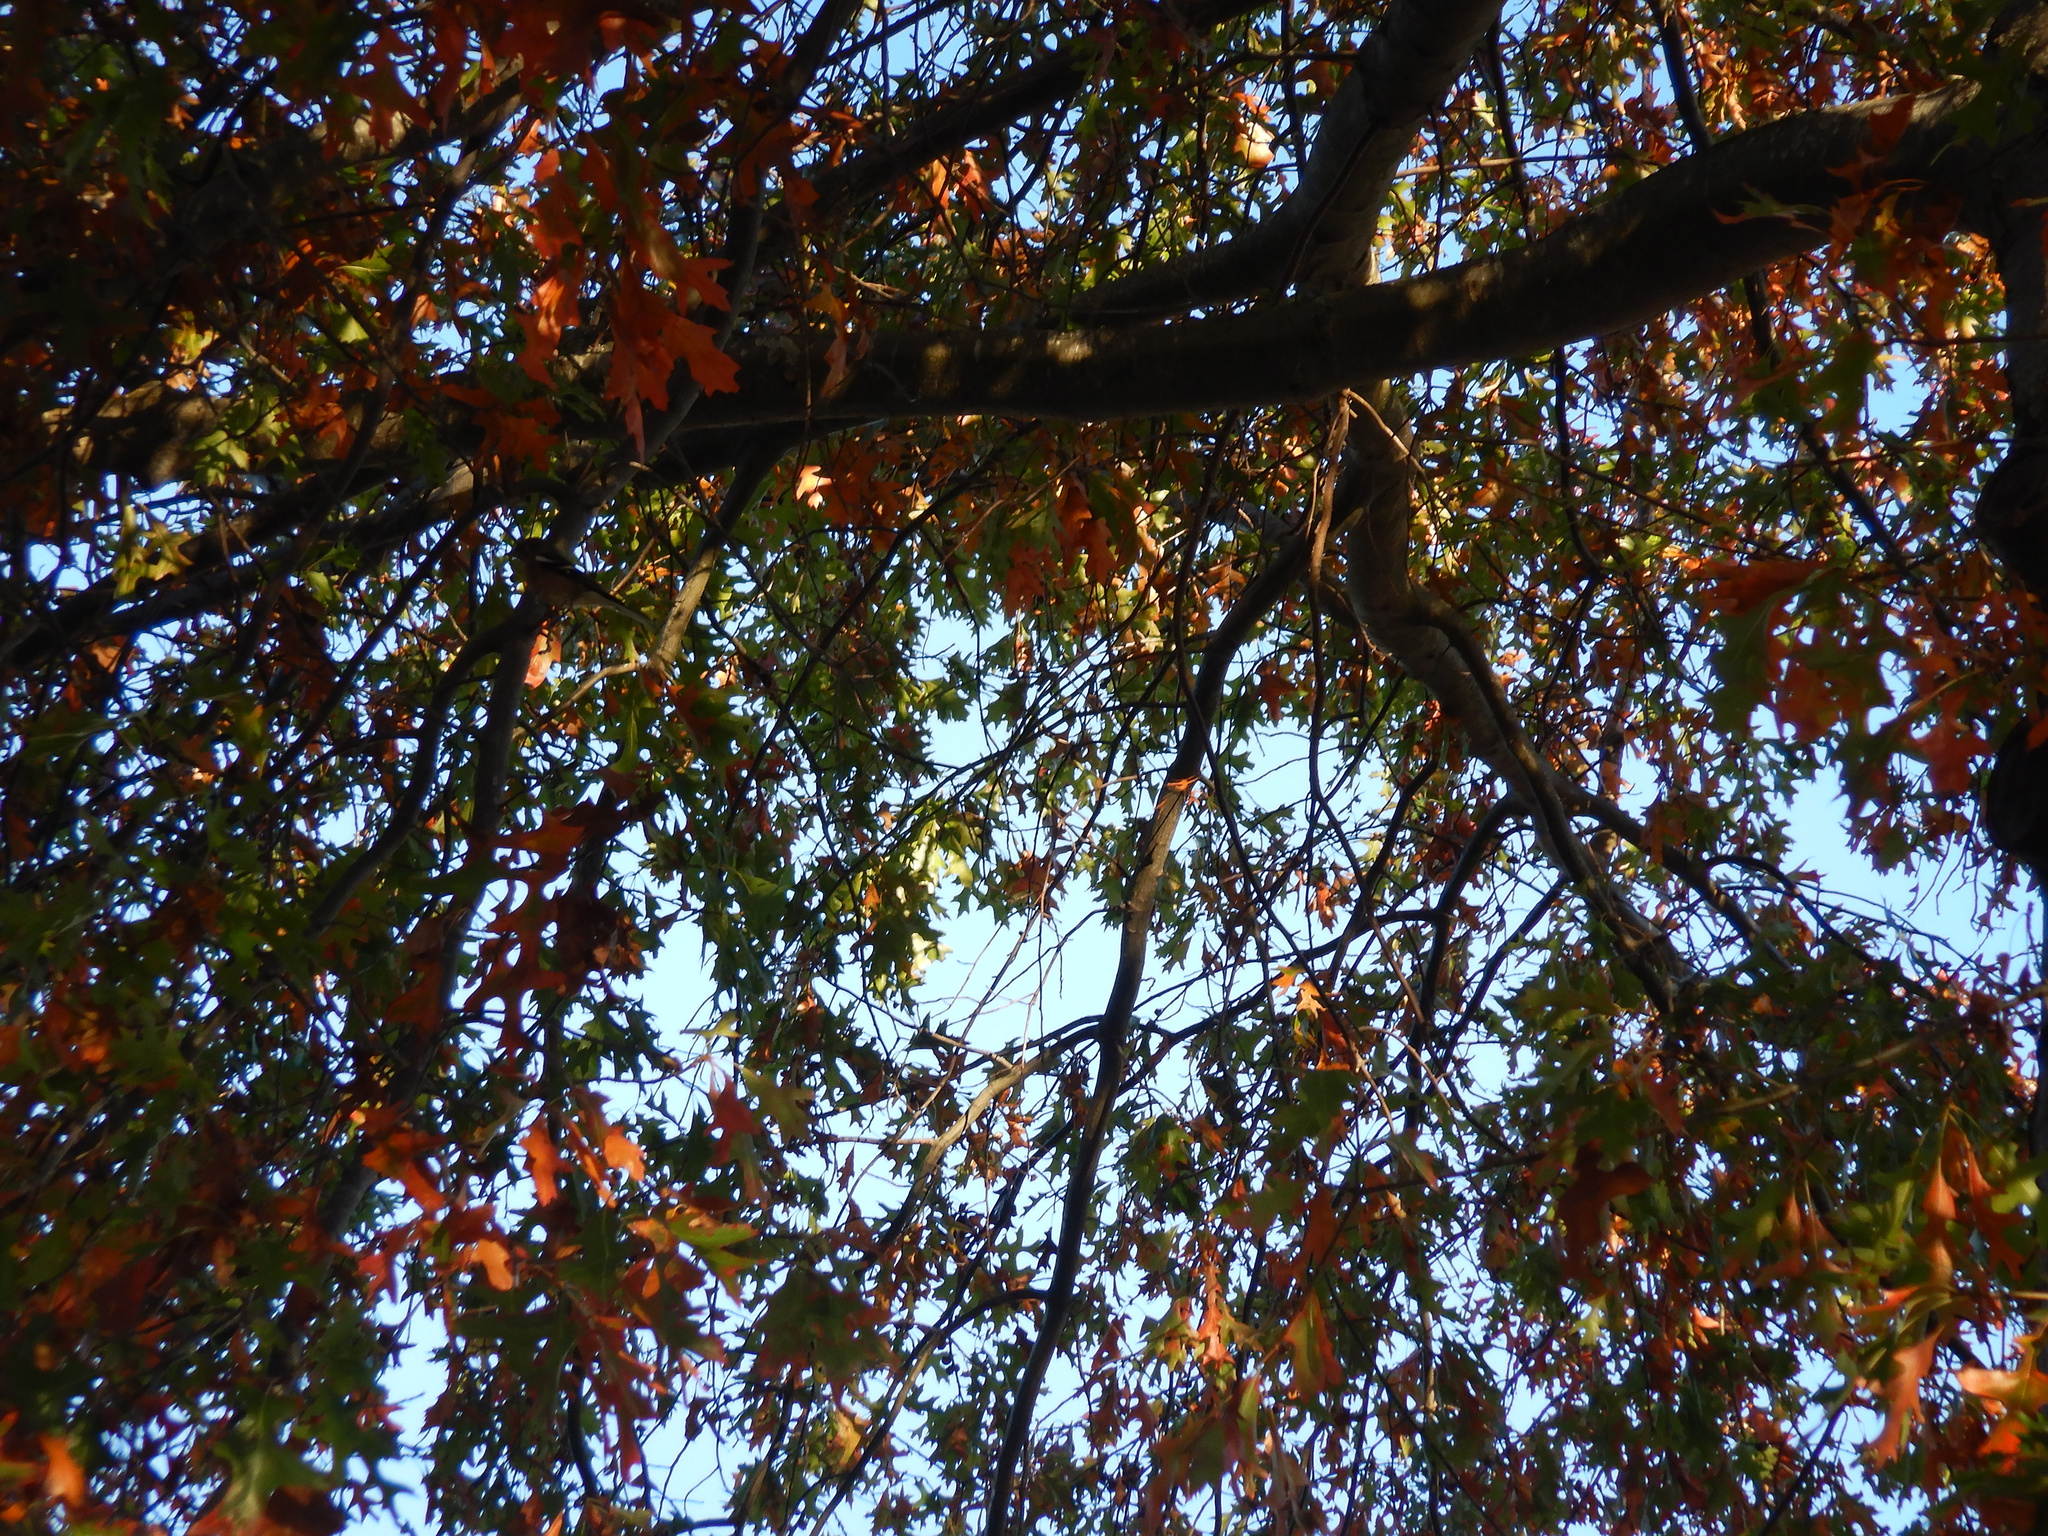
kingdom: Animalia
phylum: Chordata
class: Aves
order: Passeriformes
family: Fringillidae
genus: Fringilla
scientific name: Fringilla coelebs
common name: Common chaffinch
